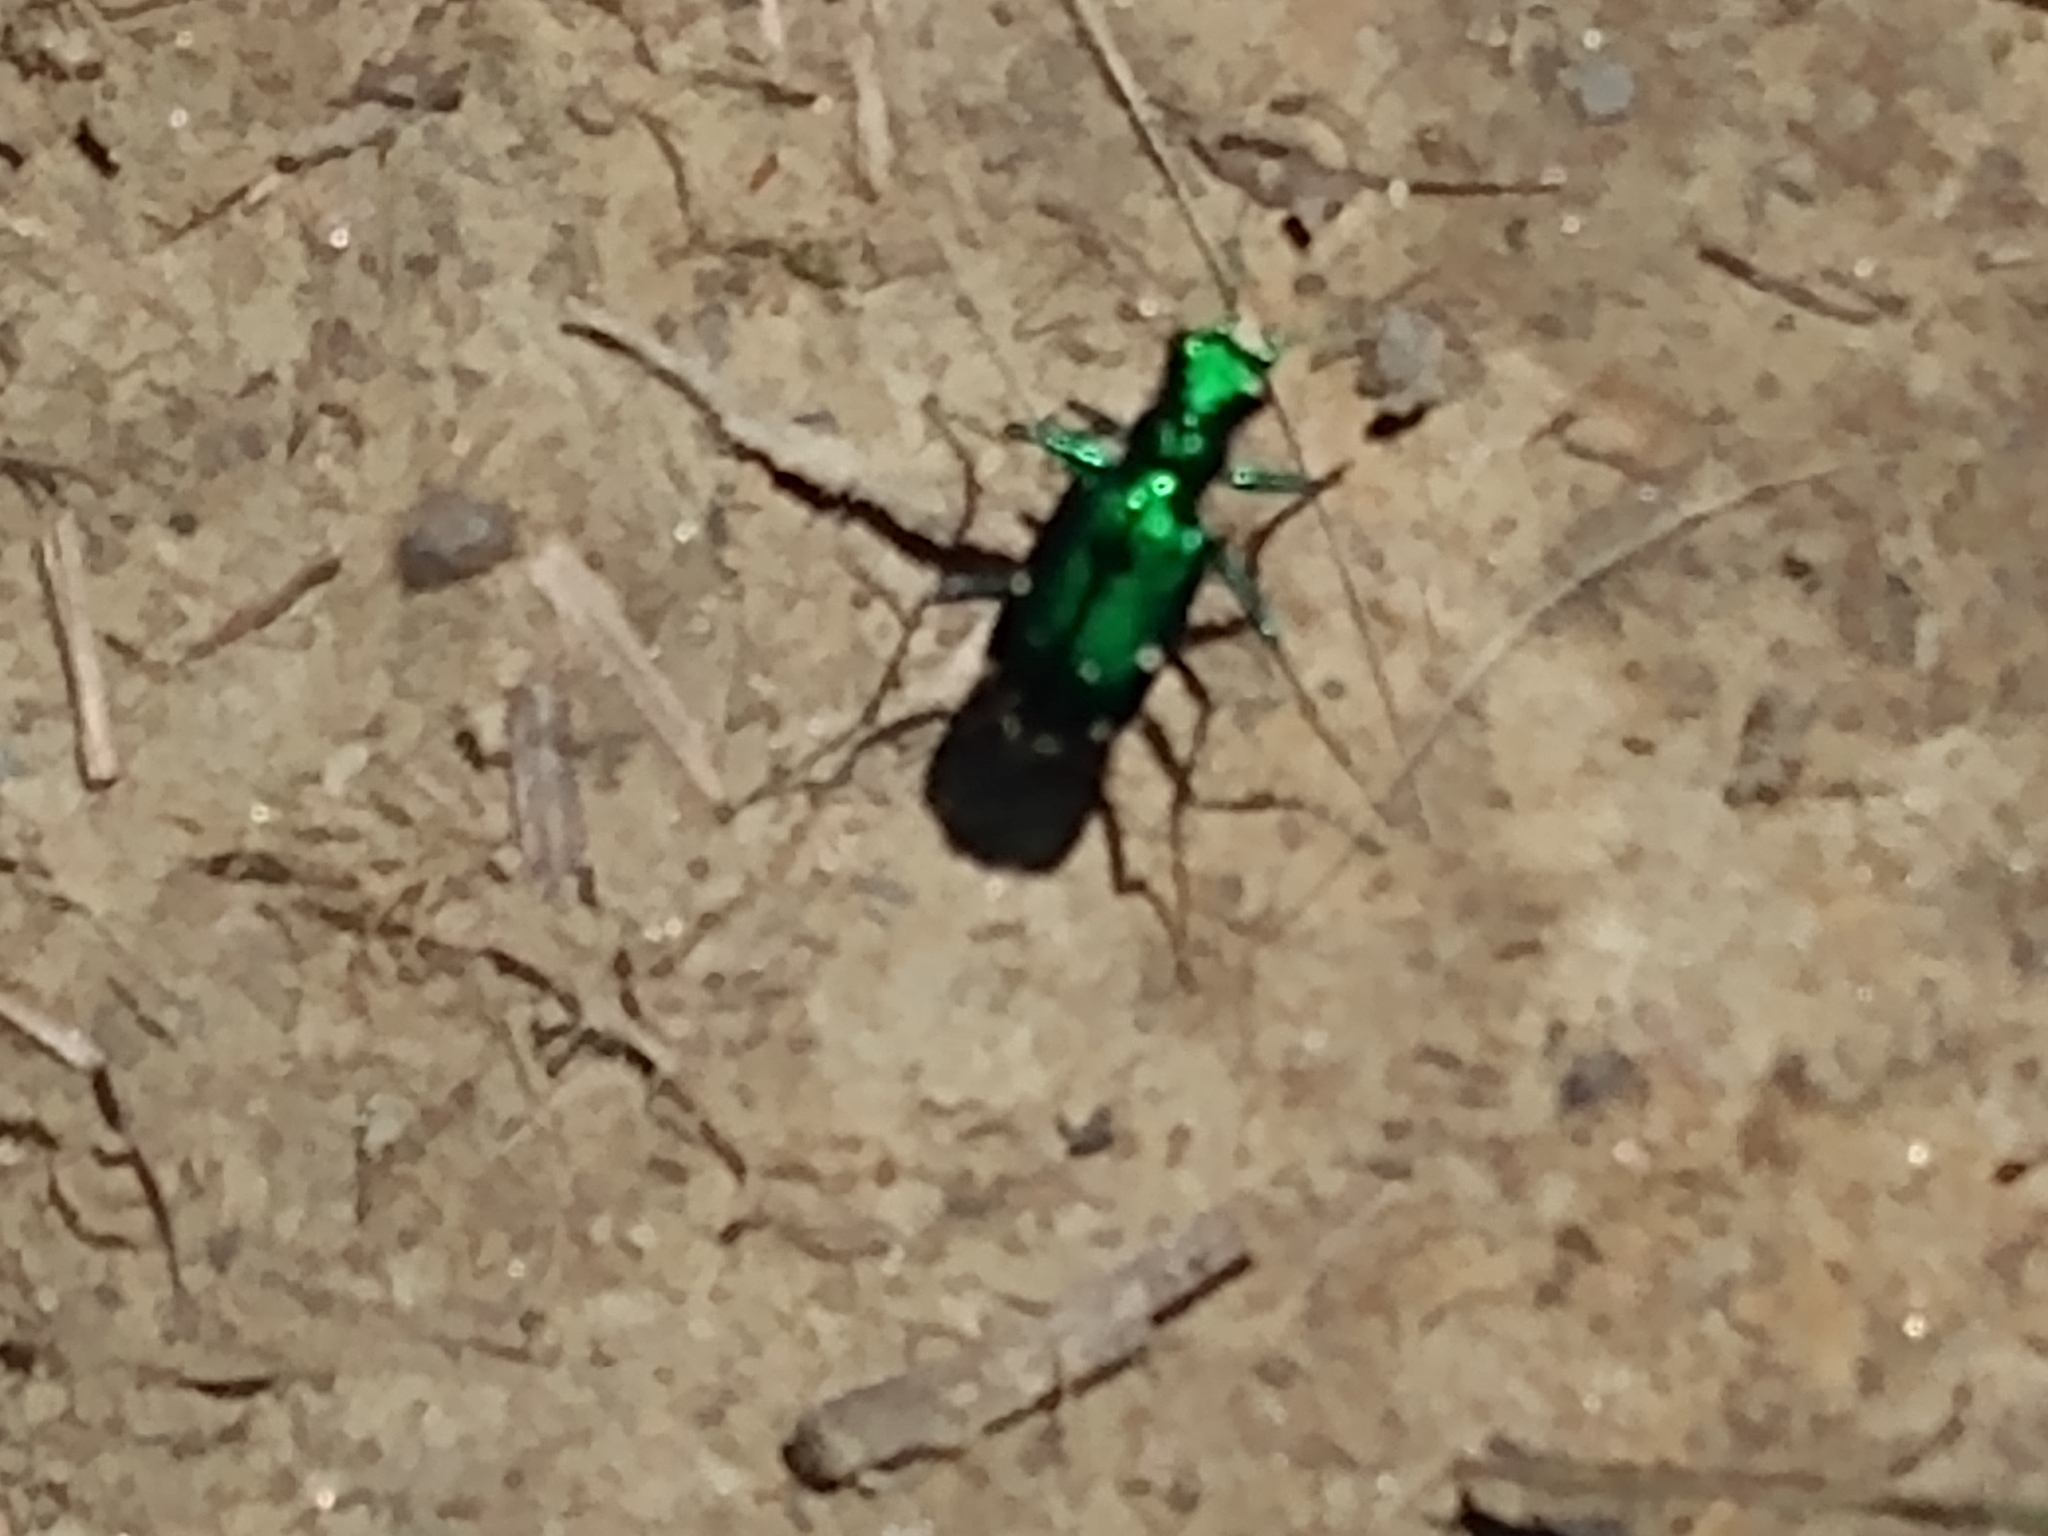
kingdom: Animalia
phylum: Arthropoda
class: Insecta
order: Coleoptera
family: Carabidae
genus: Cicindela
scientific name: Cicindela sexguttata
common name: Six-spotted tiger beetle
